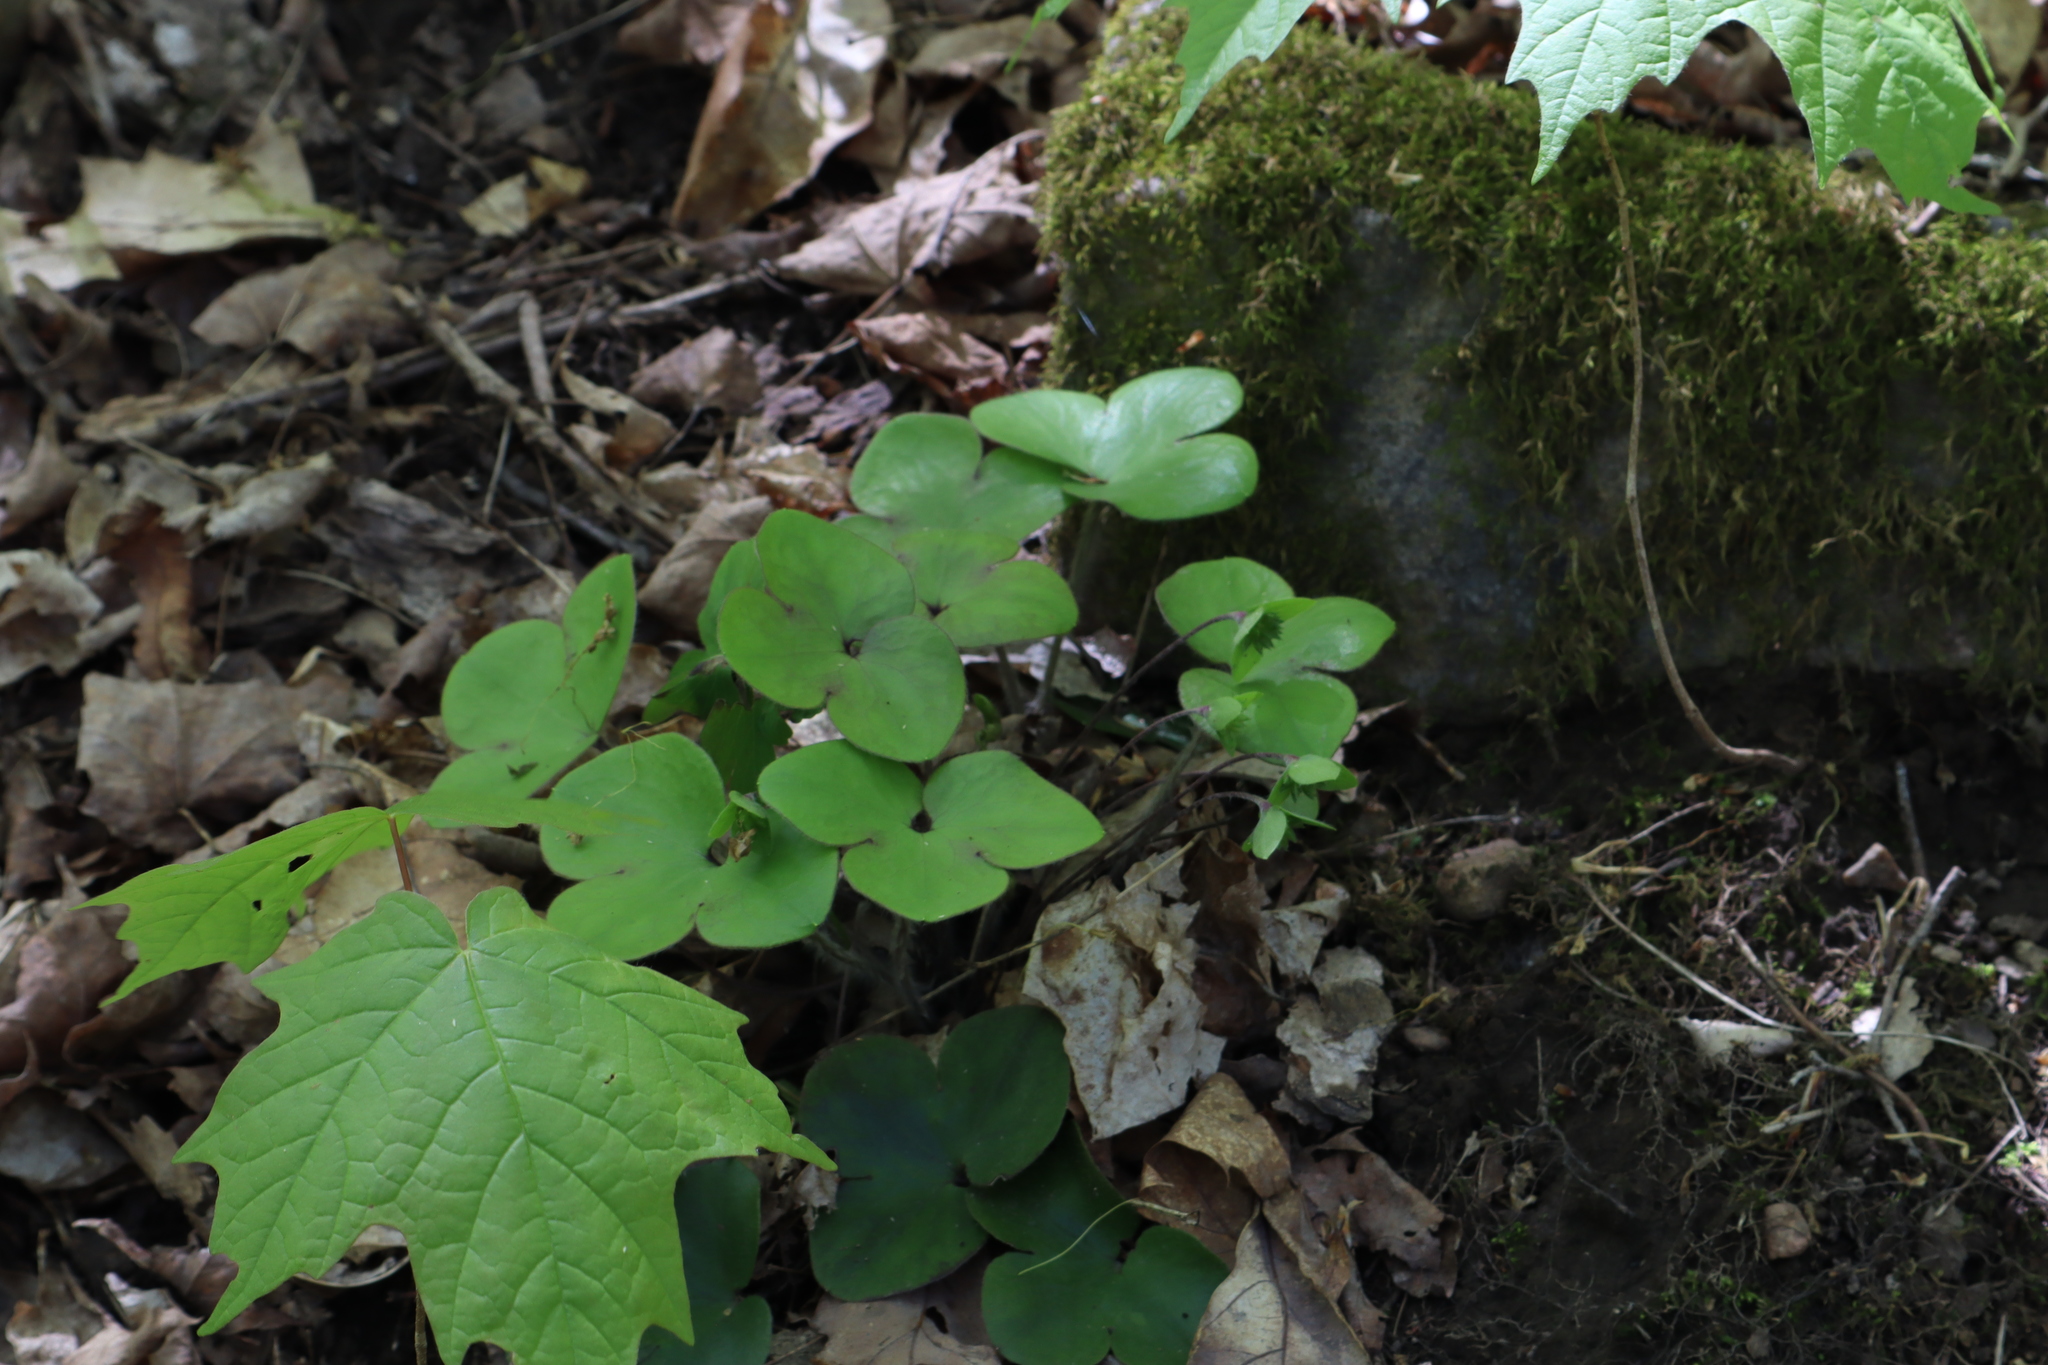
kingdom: Plantae
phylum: Tracheophyta
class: Magnoliopsida
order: Ranunculales
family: Ranunculaceae
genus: Hepatica
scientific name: Hepatica americana
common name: American hepatica
